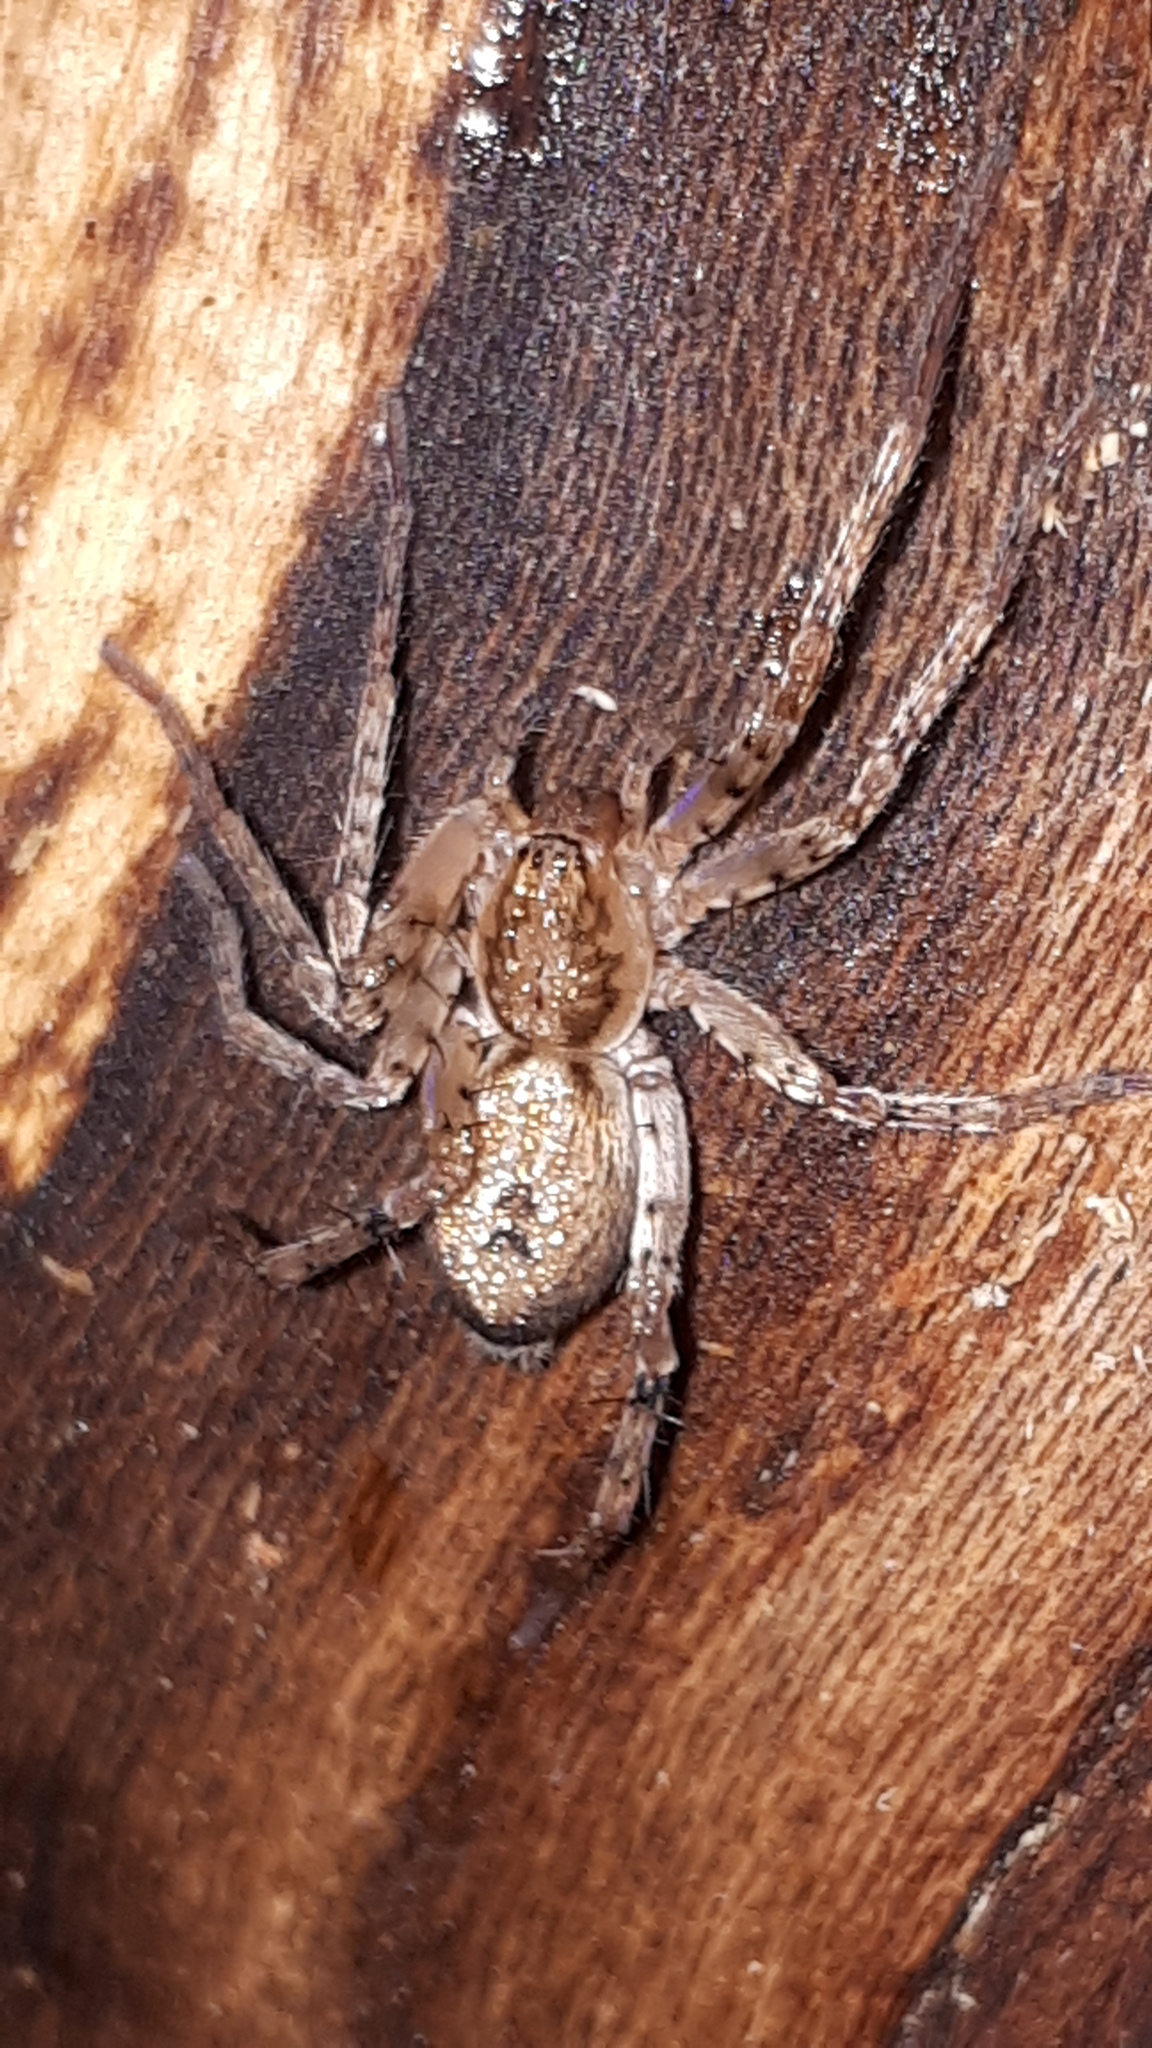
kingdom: Animalia
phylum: Arthropoda
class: Arachnida
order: Araneae
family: Anyphaenidae
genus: Anyphaena
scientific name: Anyphaena accentuata
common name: Buzzing spider
